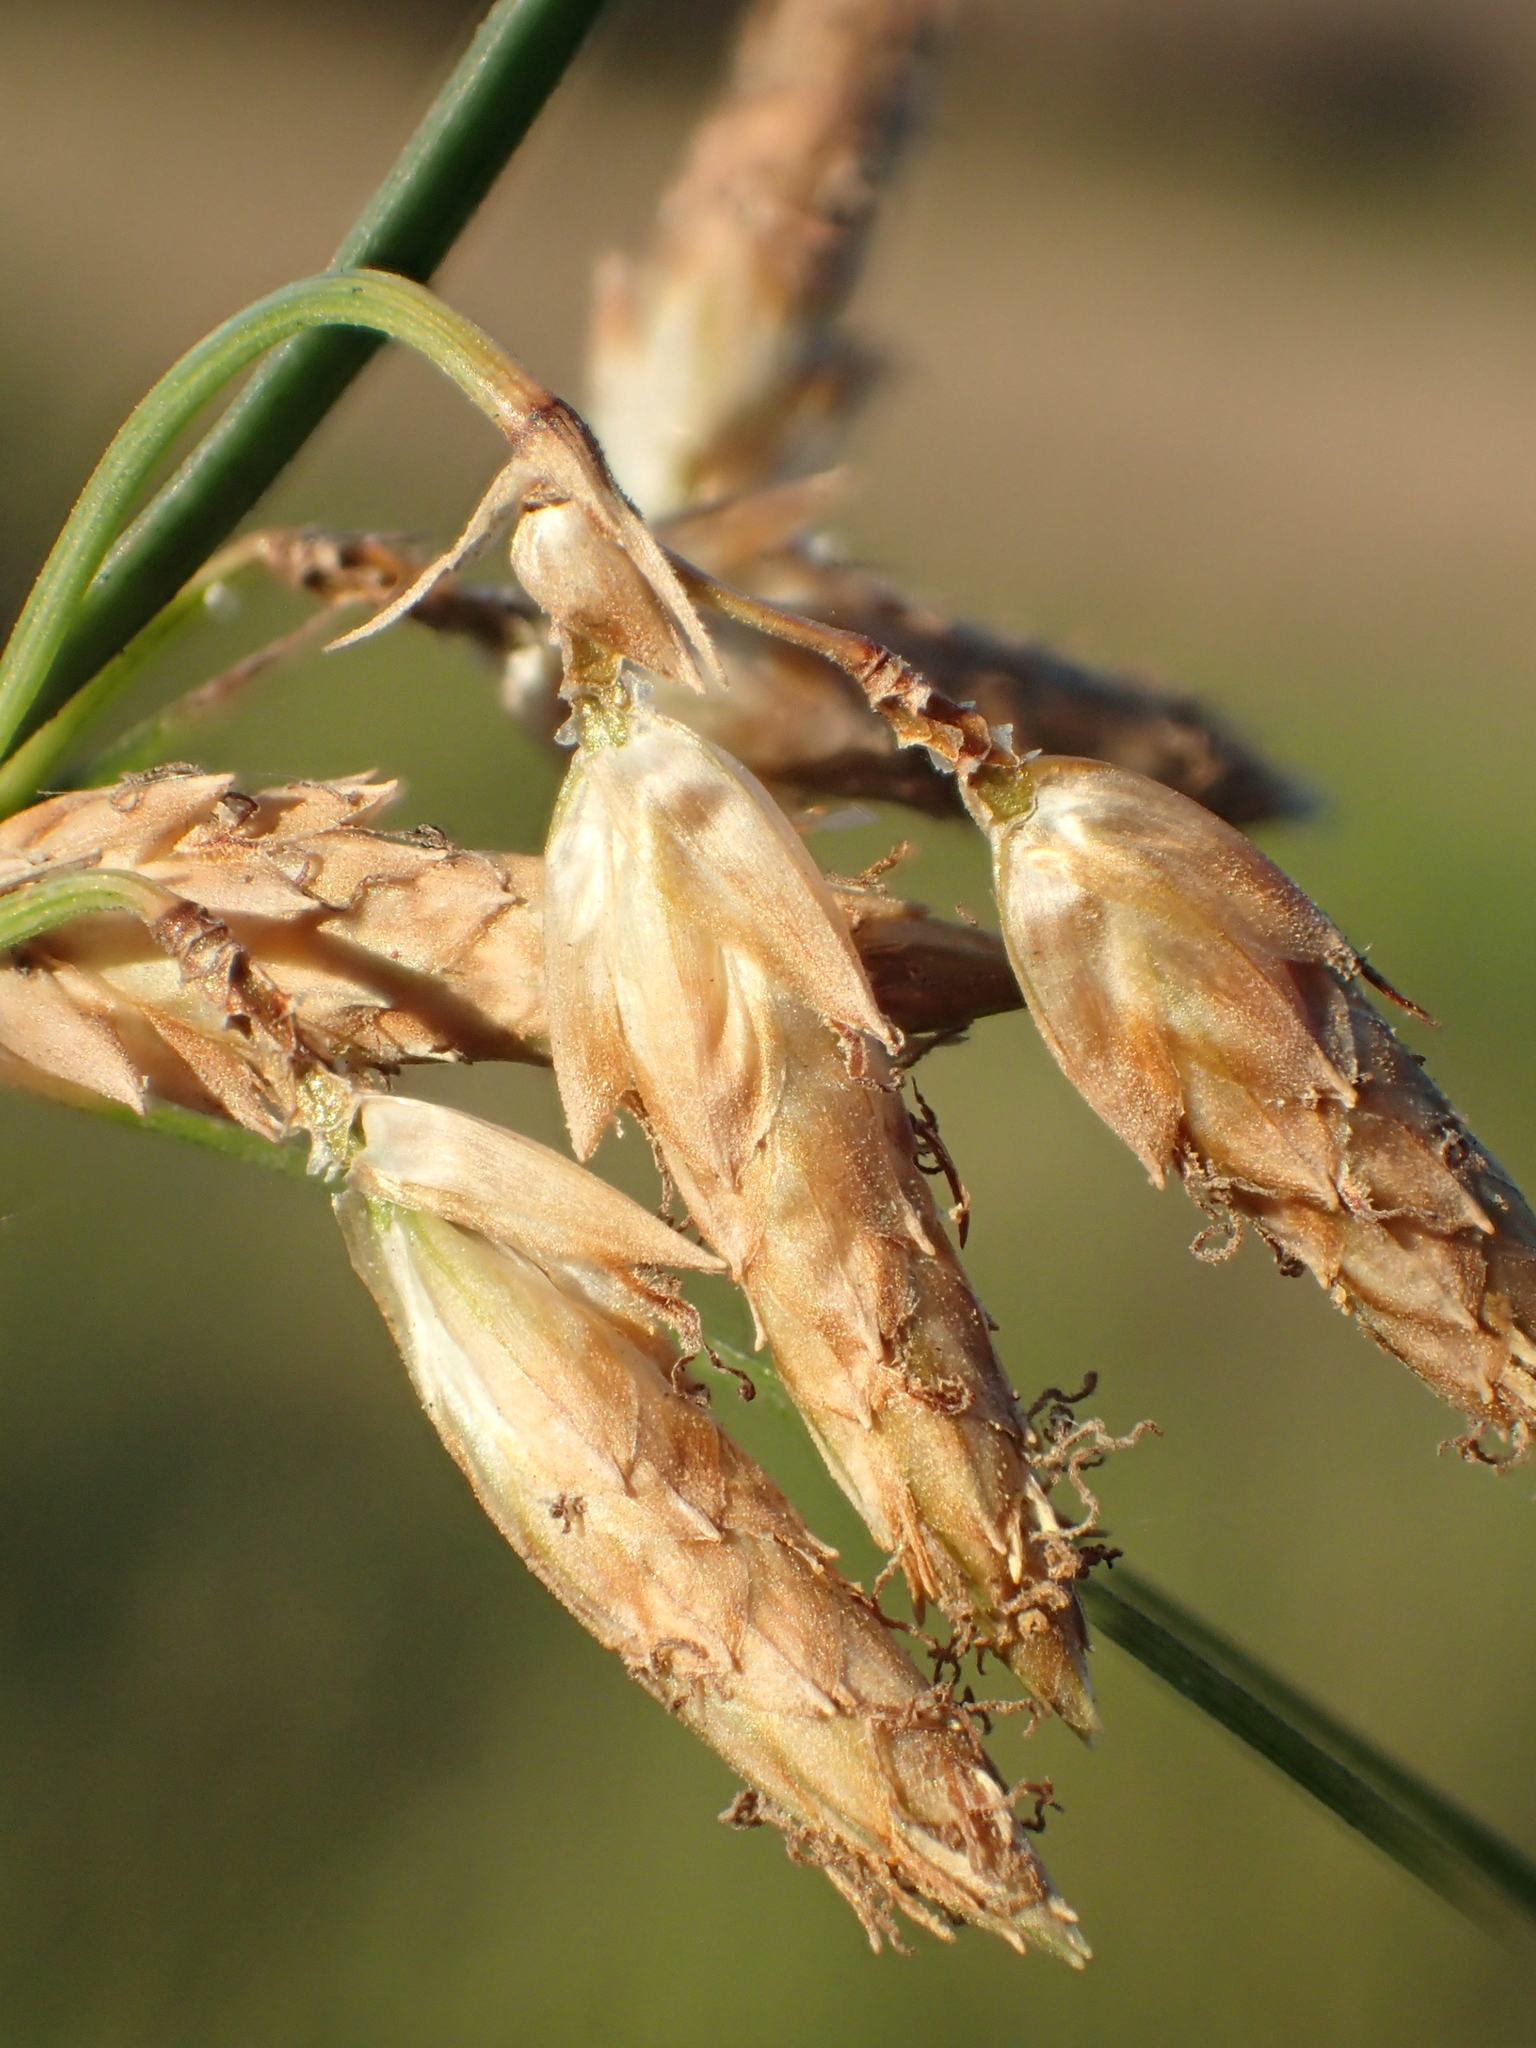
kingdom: Plantae
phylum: Tracheophyta
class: Liliopsida
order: Poales
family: Cyperaceae
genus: Fimbristylis
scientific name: Fimbristylis sieboldii
